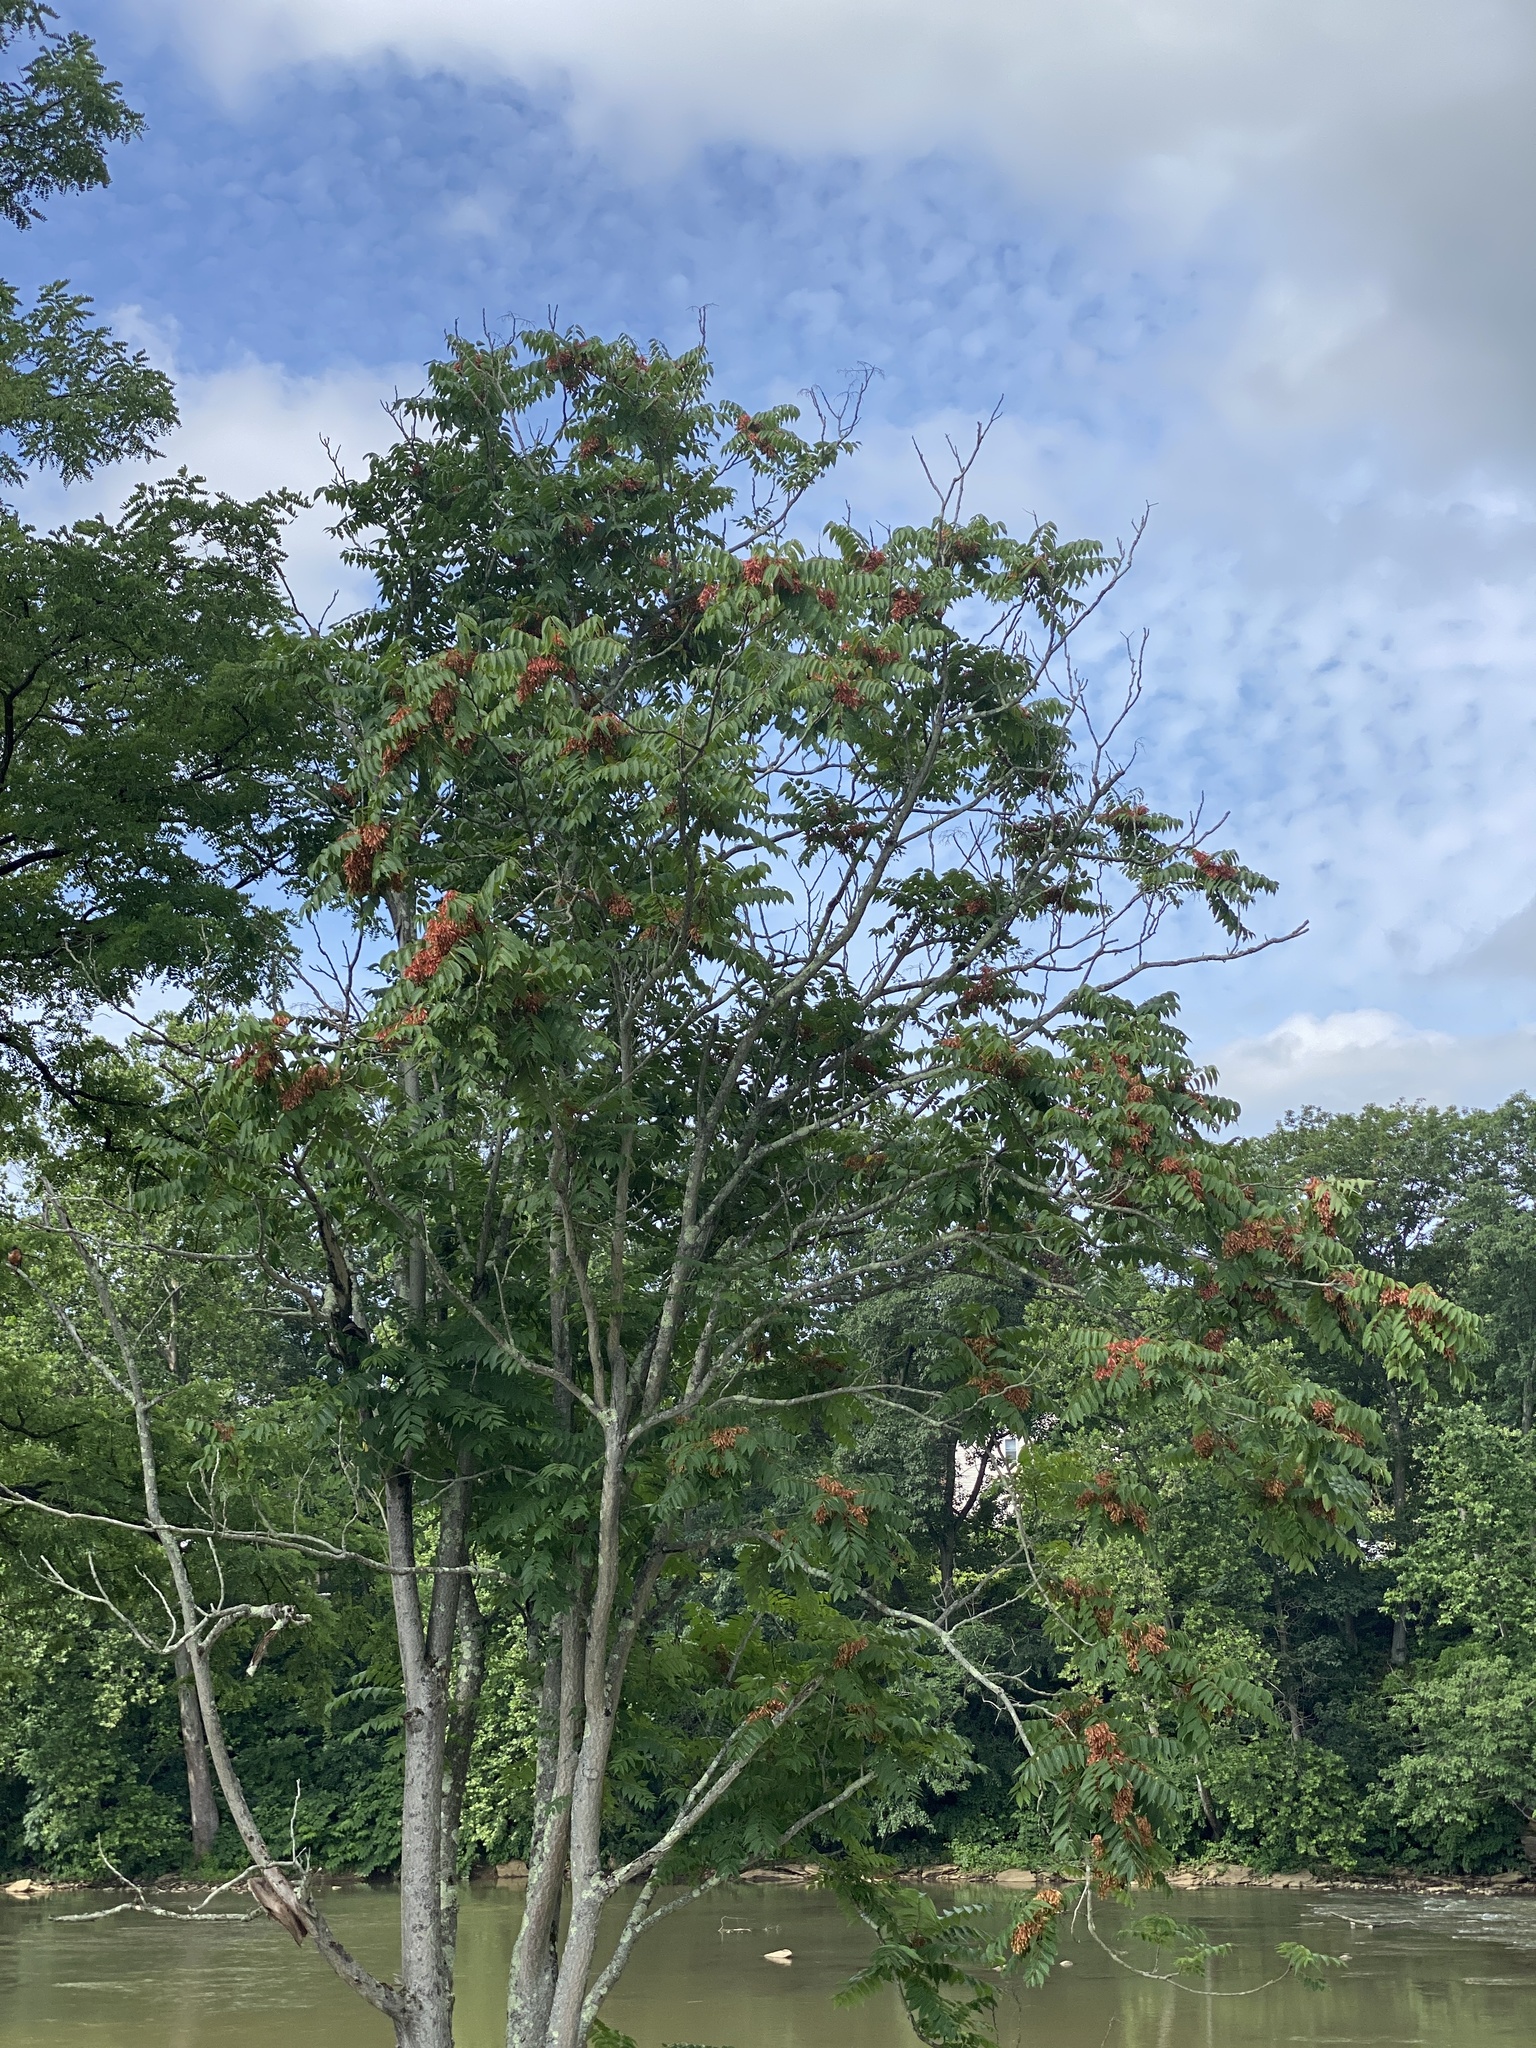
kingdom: Plantae
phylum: Tracheophyta
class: Magnoliopsida
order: Sapindales
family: Simaroubaceae
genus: Ailanthus
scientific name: Ailanthus altissima
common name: Tree-of-heaven
